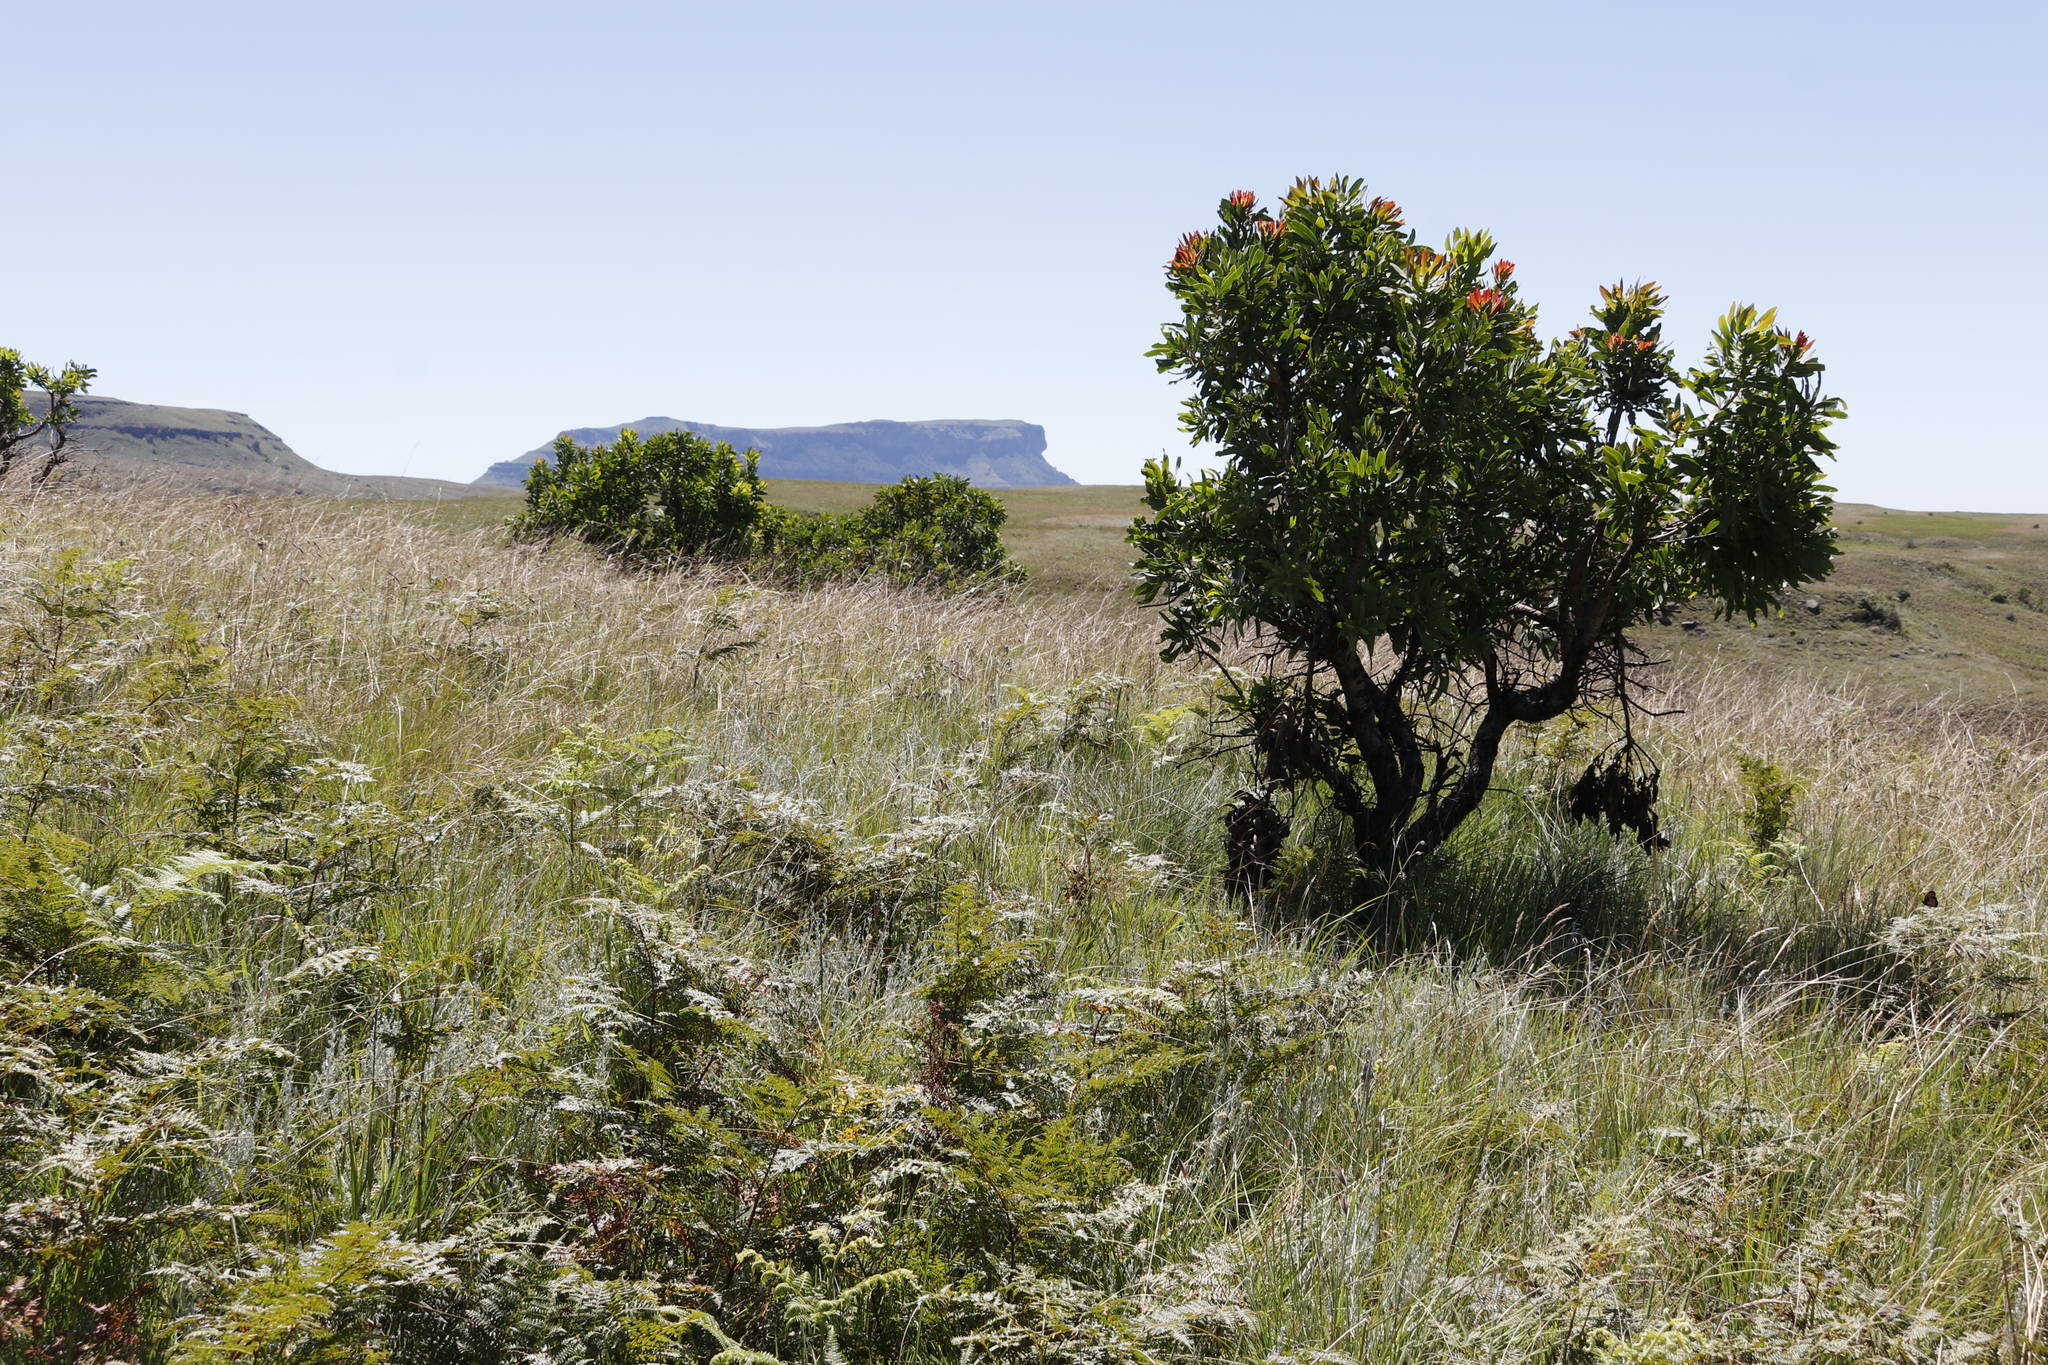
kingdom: Plantae
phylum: Tracheophyta
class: Magnoliopsida
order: Proteales
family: Proteaceae
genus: Protea
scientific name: Protea caffra
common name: Common sugarbush
